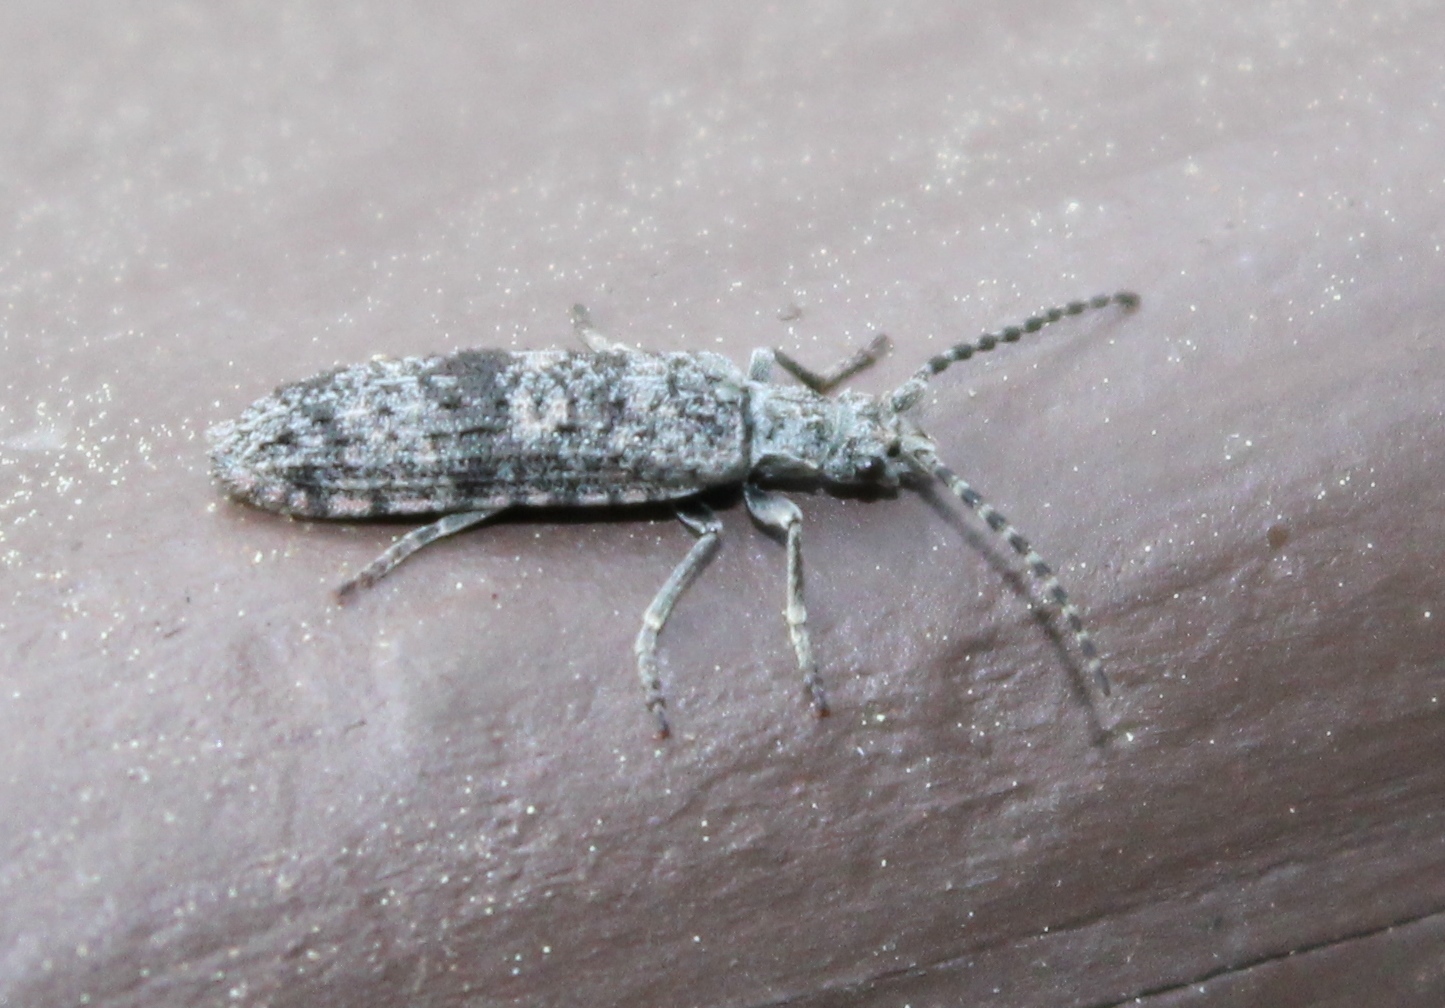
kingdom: Animalia
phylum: Arthropoda
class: Insecta
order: Coleoptera
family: Cupedidae
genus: Priacma
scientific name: Priacma serrata
